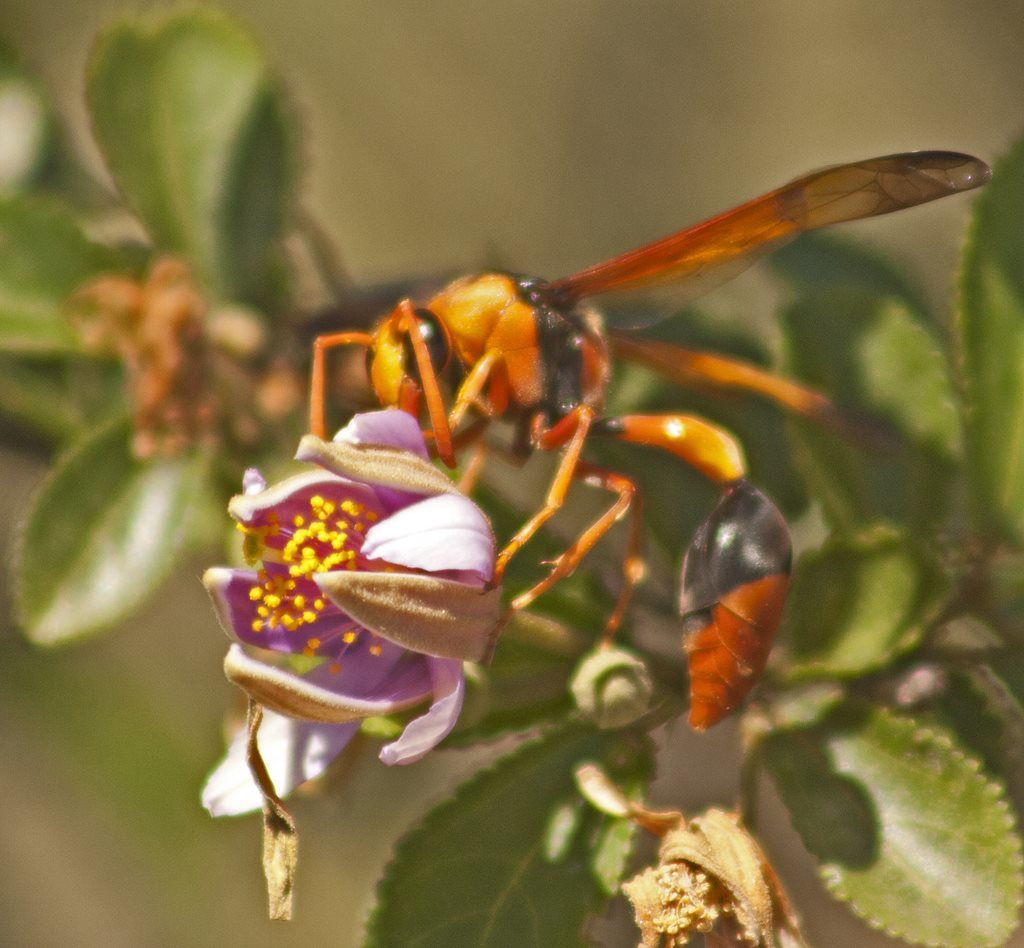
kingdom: Animalia
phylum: Arthropoda
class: Insecta
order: Hymenoptera
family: Eumenidae
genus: Delta
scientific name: Delta latreillei
